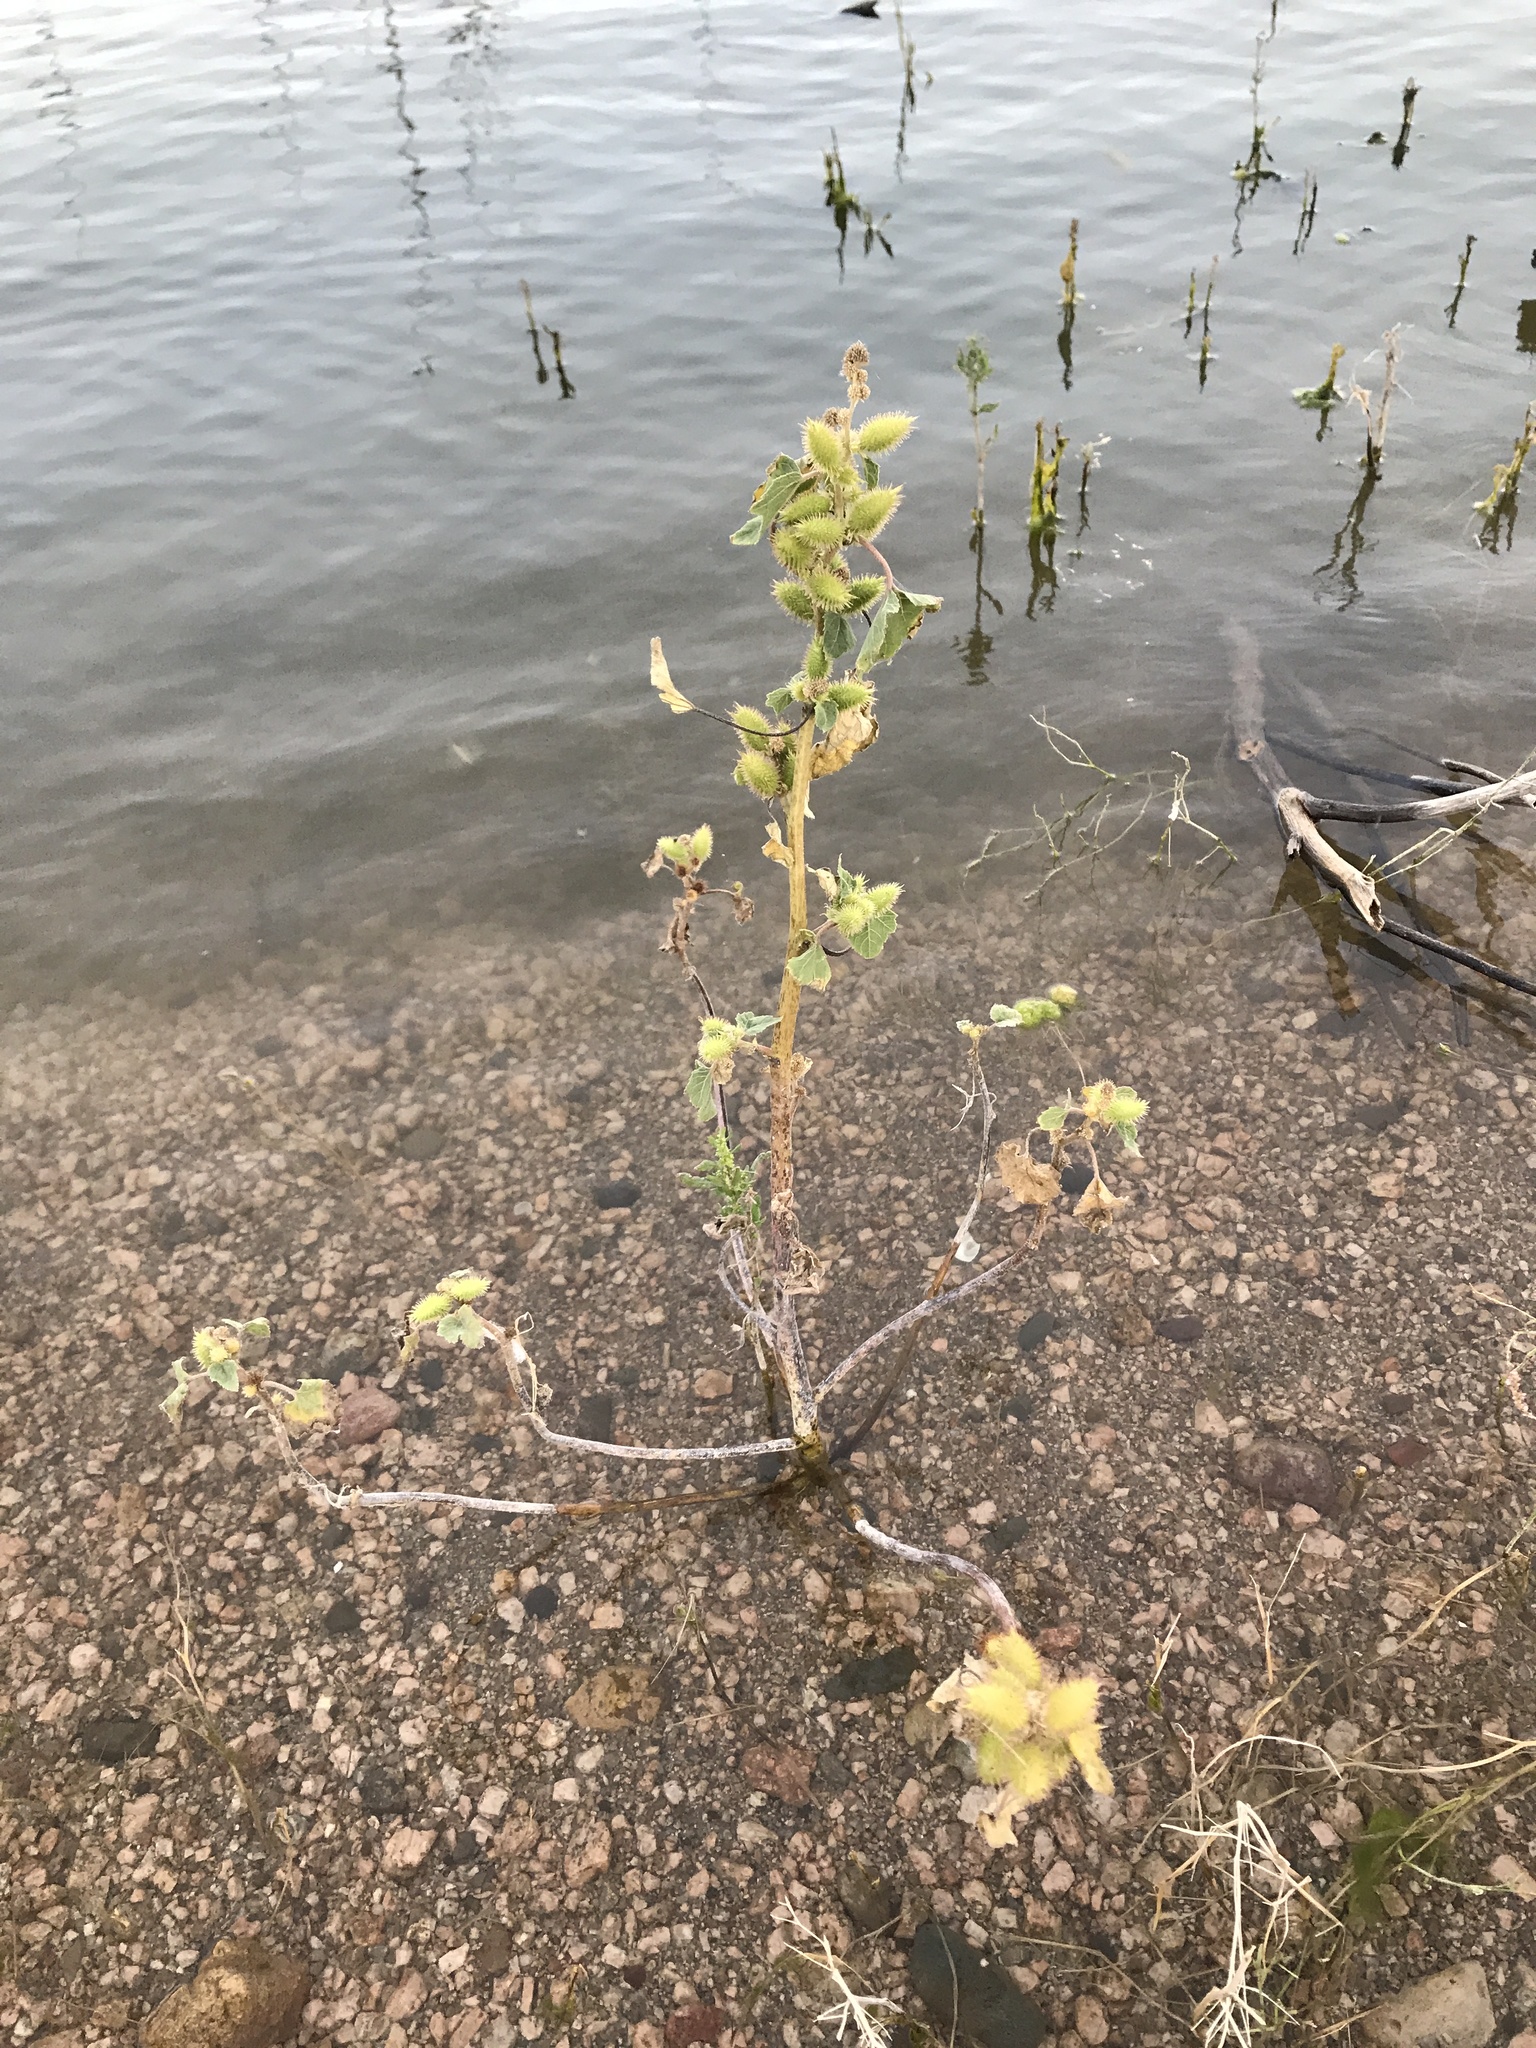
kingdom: Plantae
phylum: Tracheophyta
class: Magnoliopsida
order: Asterales
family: Asteraceae
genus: Xanthium
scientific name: Xanthium strumarium
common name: Rough cocklebur
